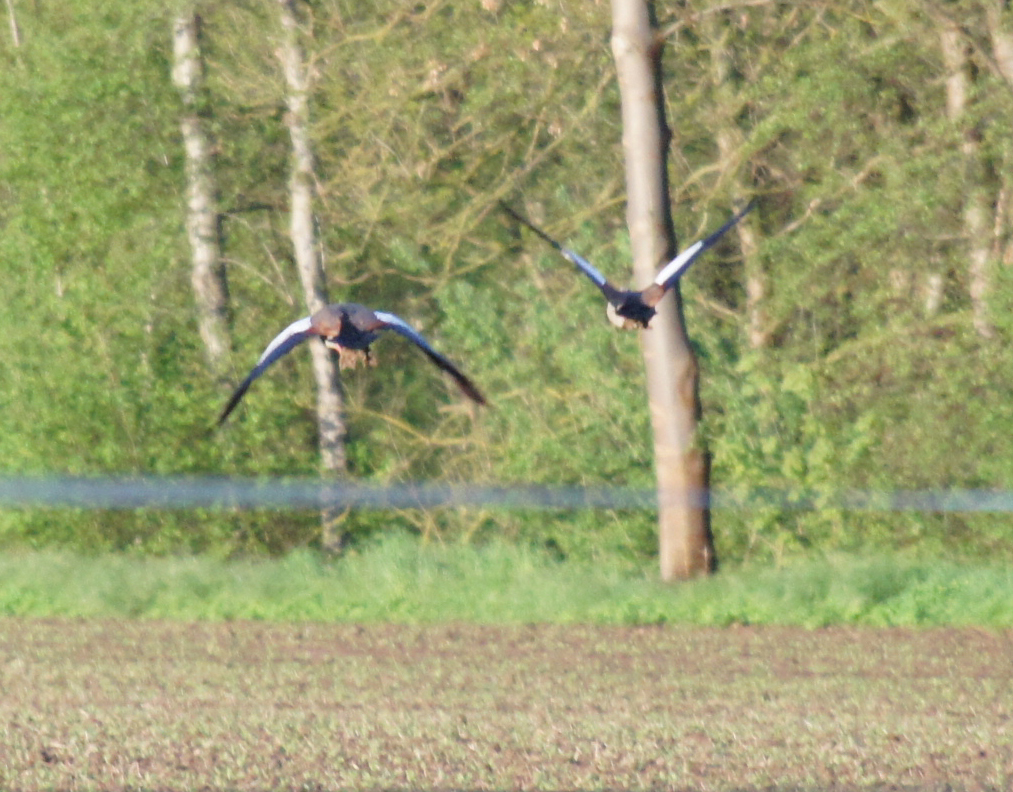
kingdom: Animalia
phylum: Chordata
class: Aves
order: Anseriformes
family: Anatidae
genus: Alopochen
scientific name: Alopochen aegyptiaca
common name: Egyptian goose
